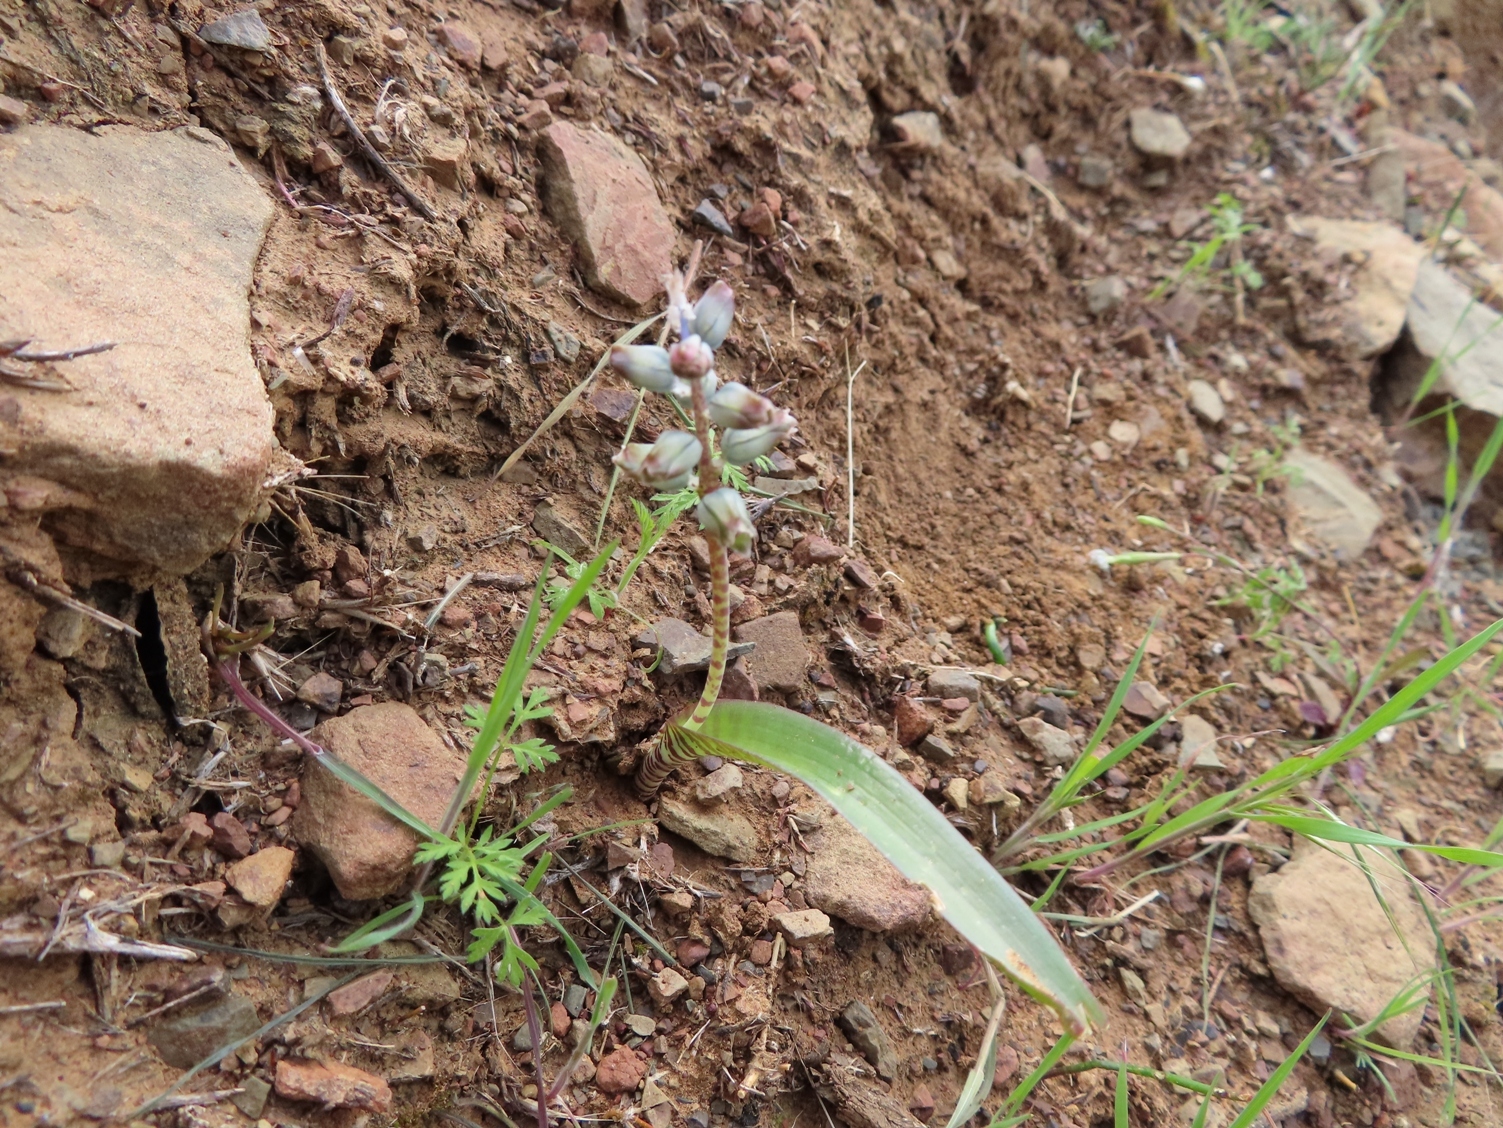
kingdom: Plantae
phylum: Tracheophyta
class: Liliopsida
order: Asparagales
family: Asparagaceae
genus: Lachenalia
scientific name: Lachenalia bolusii
